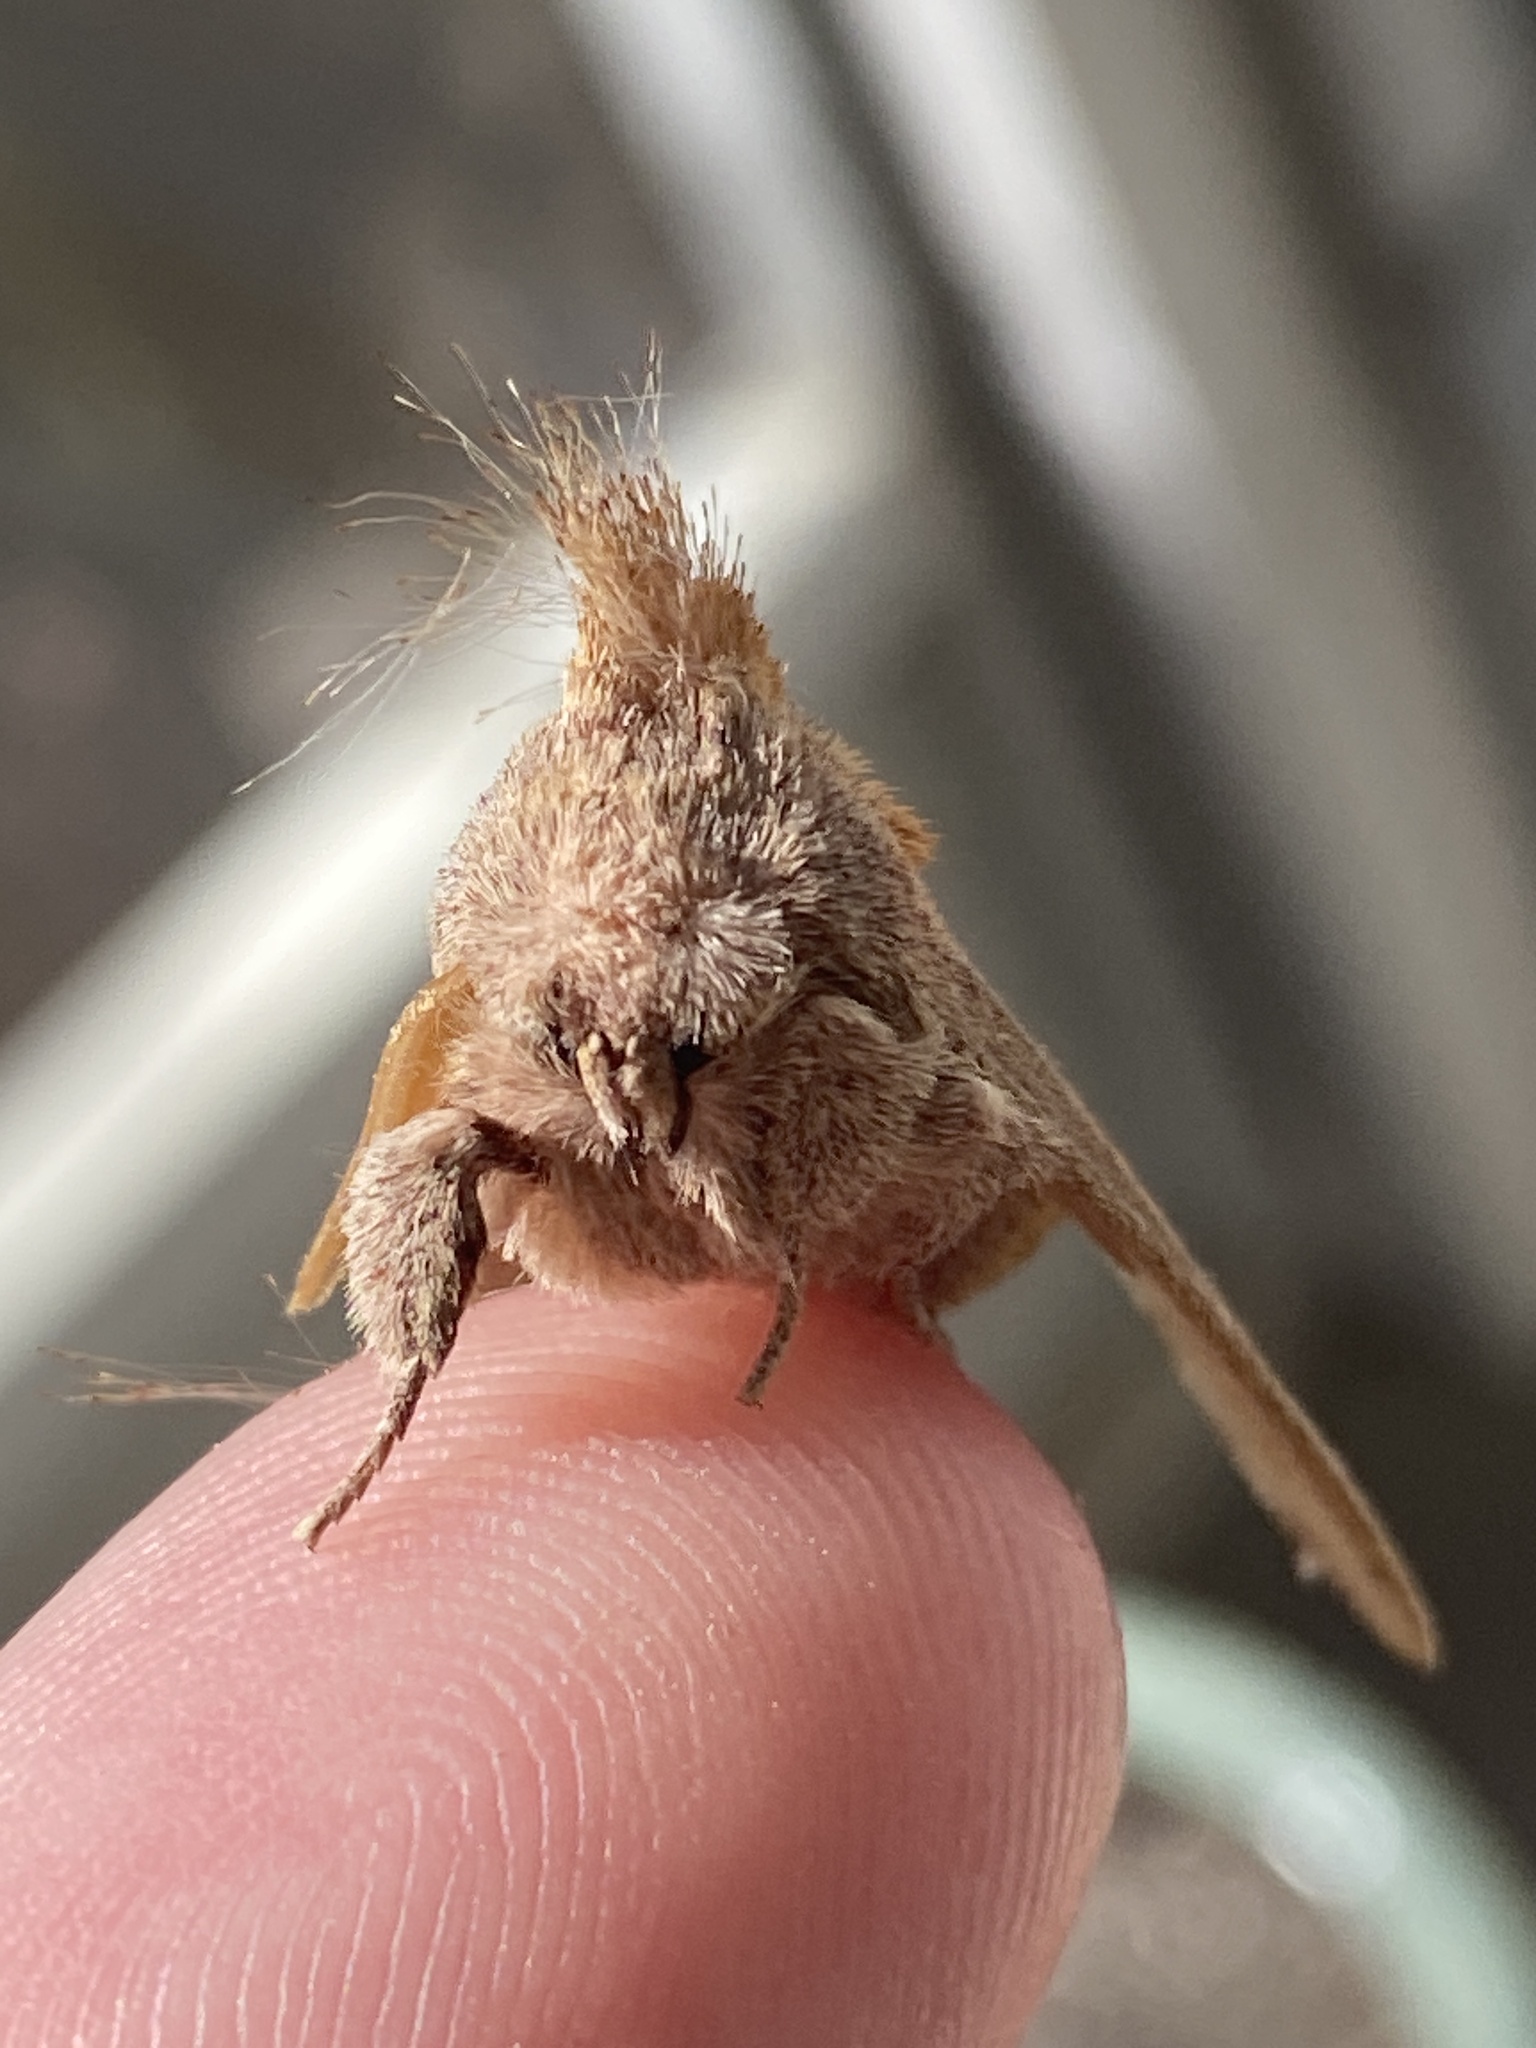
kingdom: Animalia
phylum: Arthropoda
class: Insecta
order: Lepidoptera
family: Notodontidae
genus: Nadata
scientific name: Nadata gibbosa
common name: White-dotted prominent
